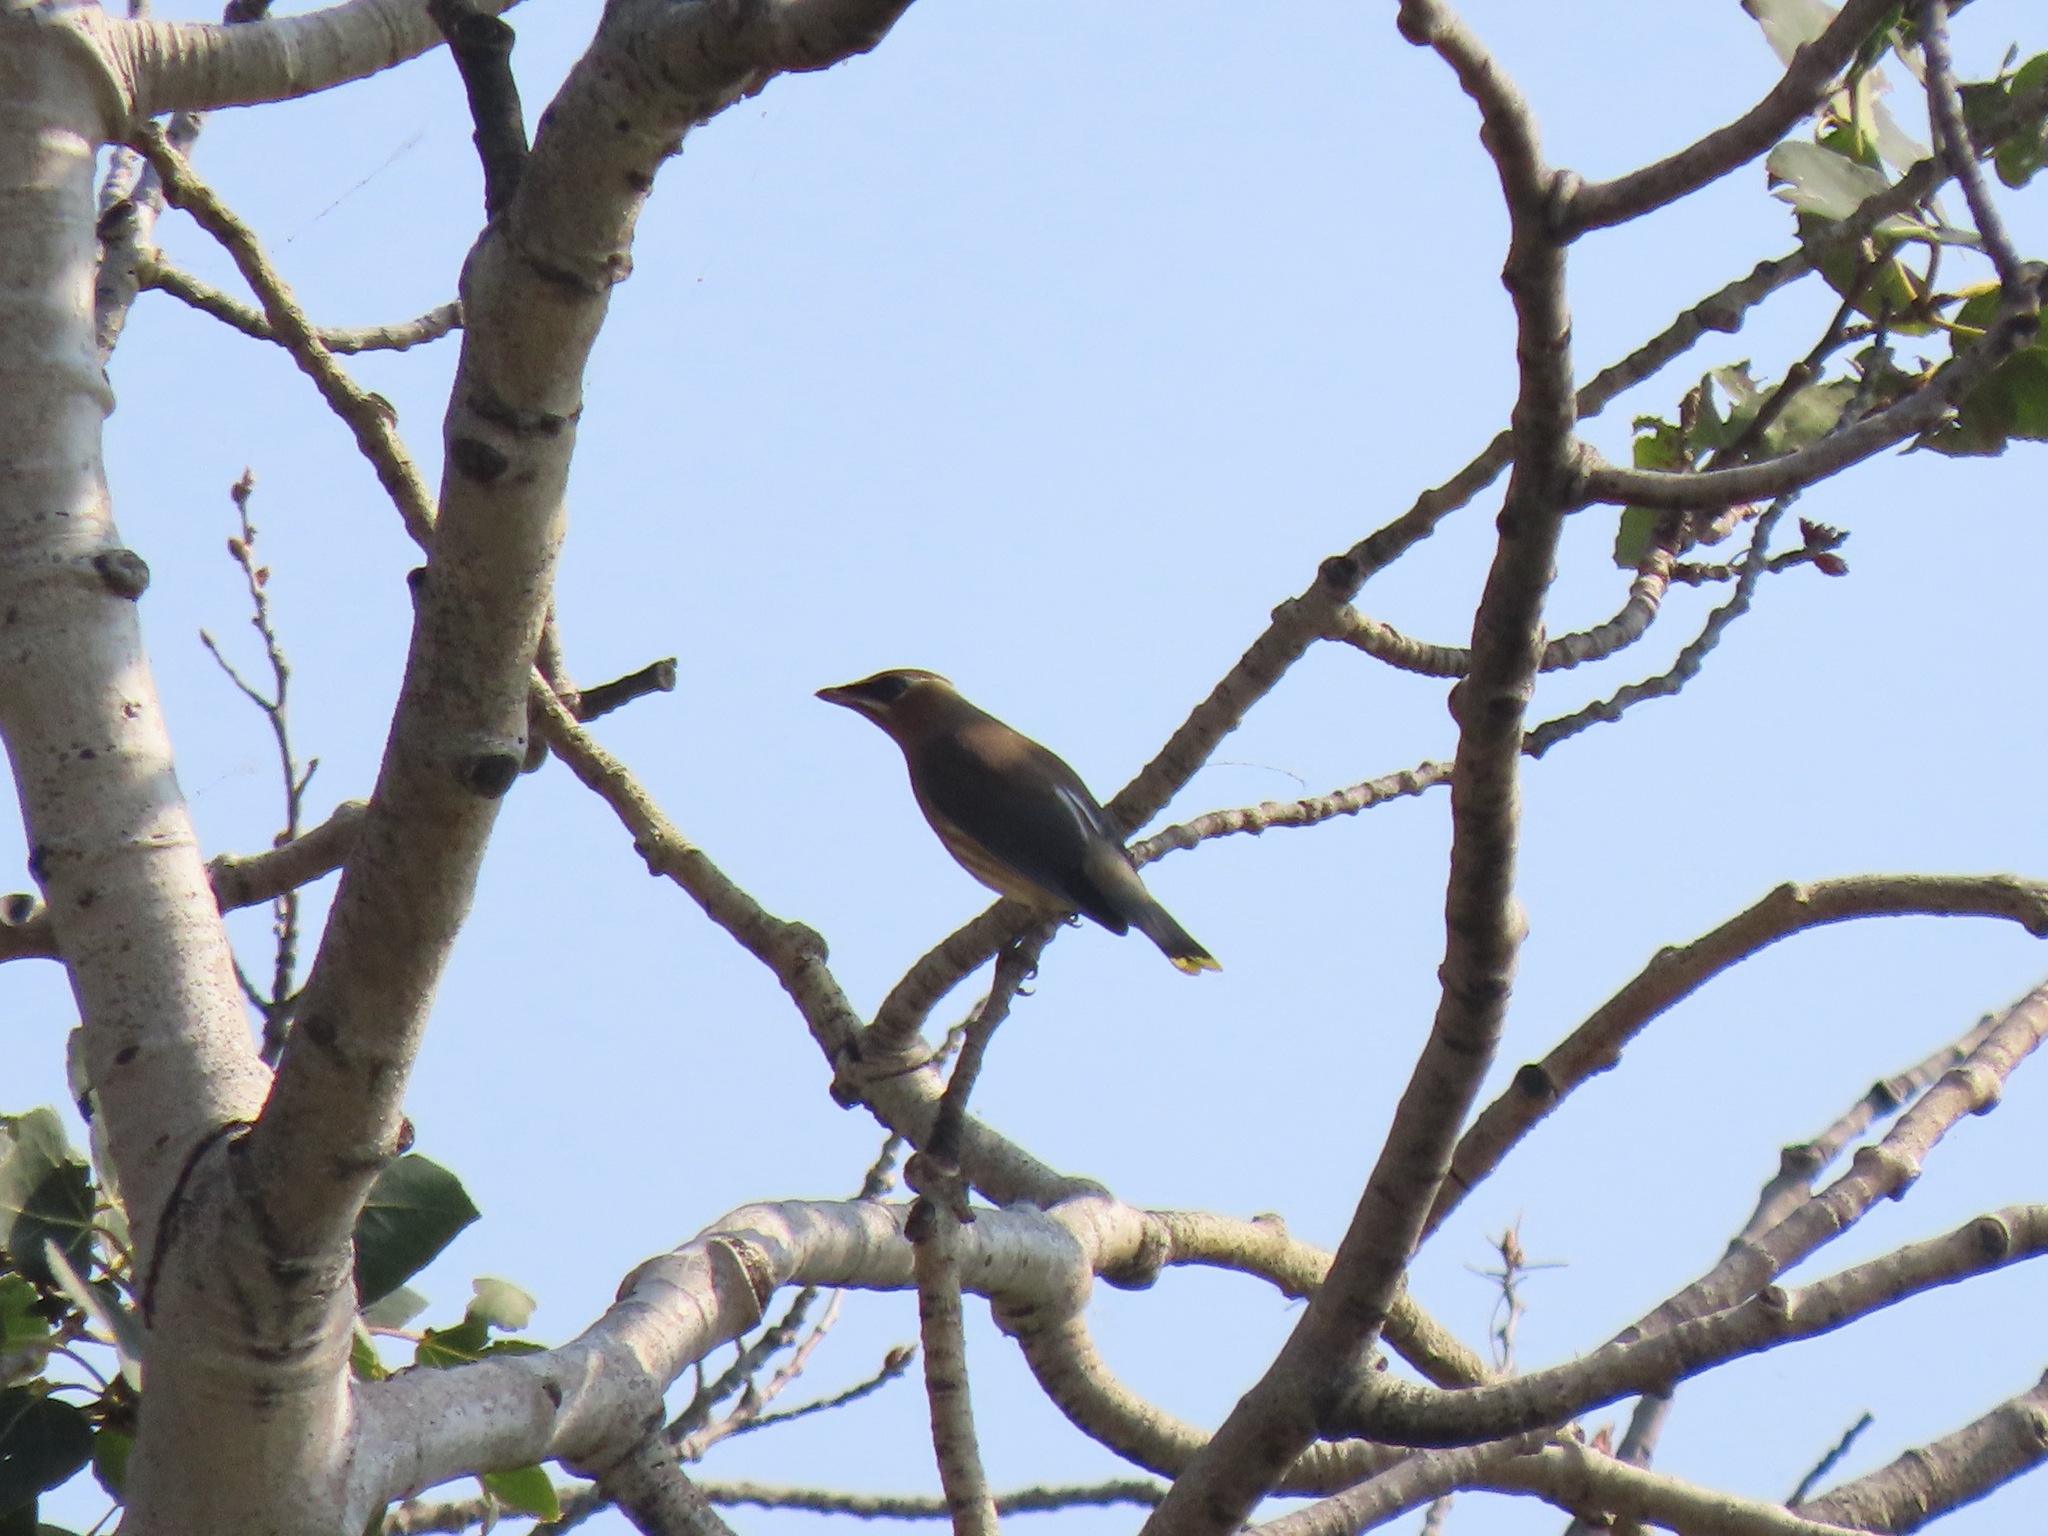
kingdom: Animalia
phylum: Chordata
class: Aves
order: Passeriformes
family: Bombycillidae
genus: Bombycilla
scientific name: Bombycilla cedrorum
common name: Cedar waxwing
